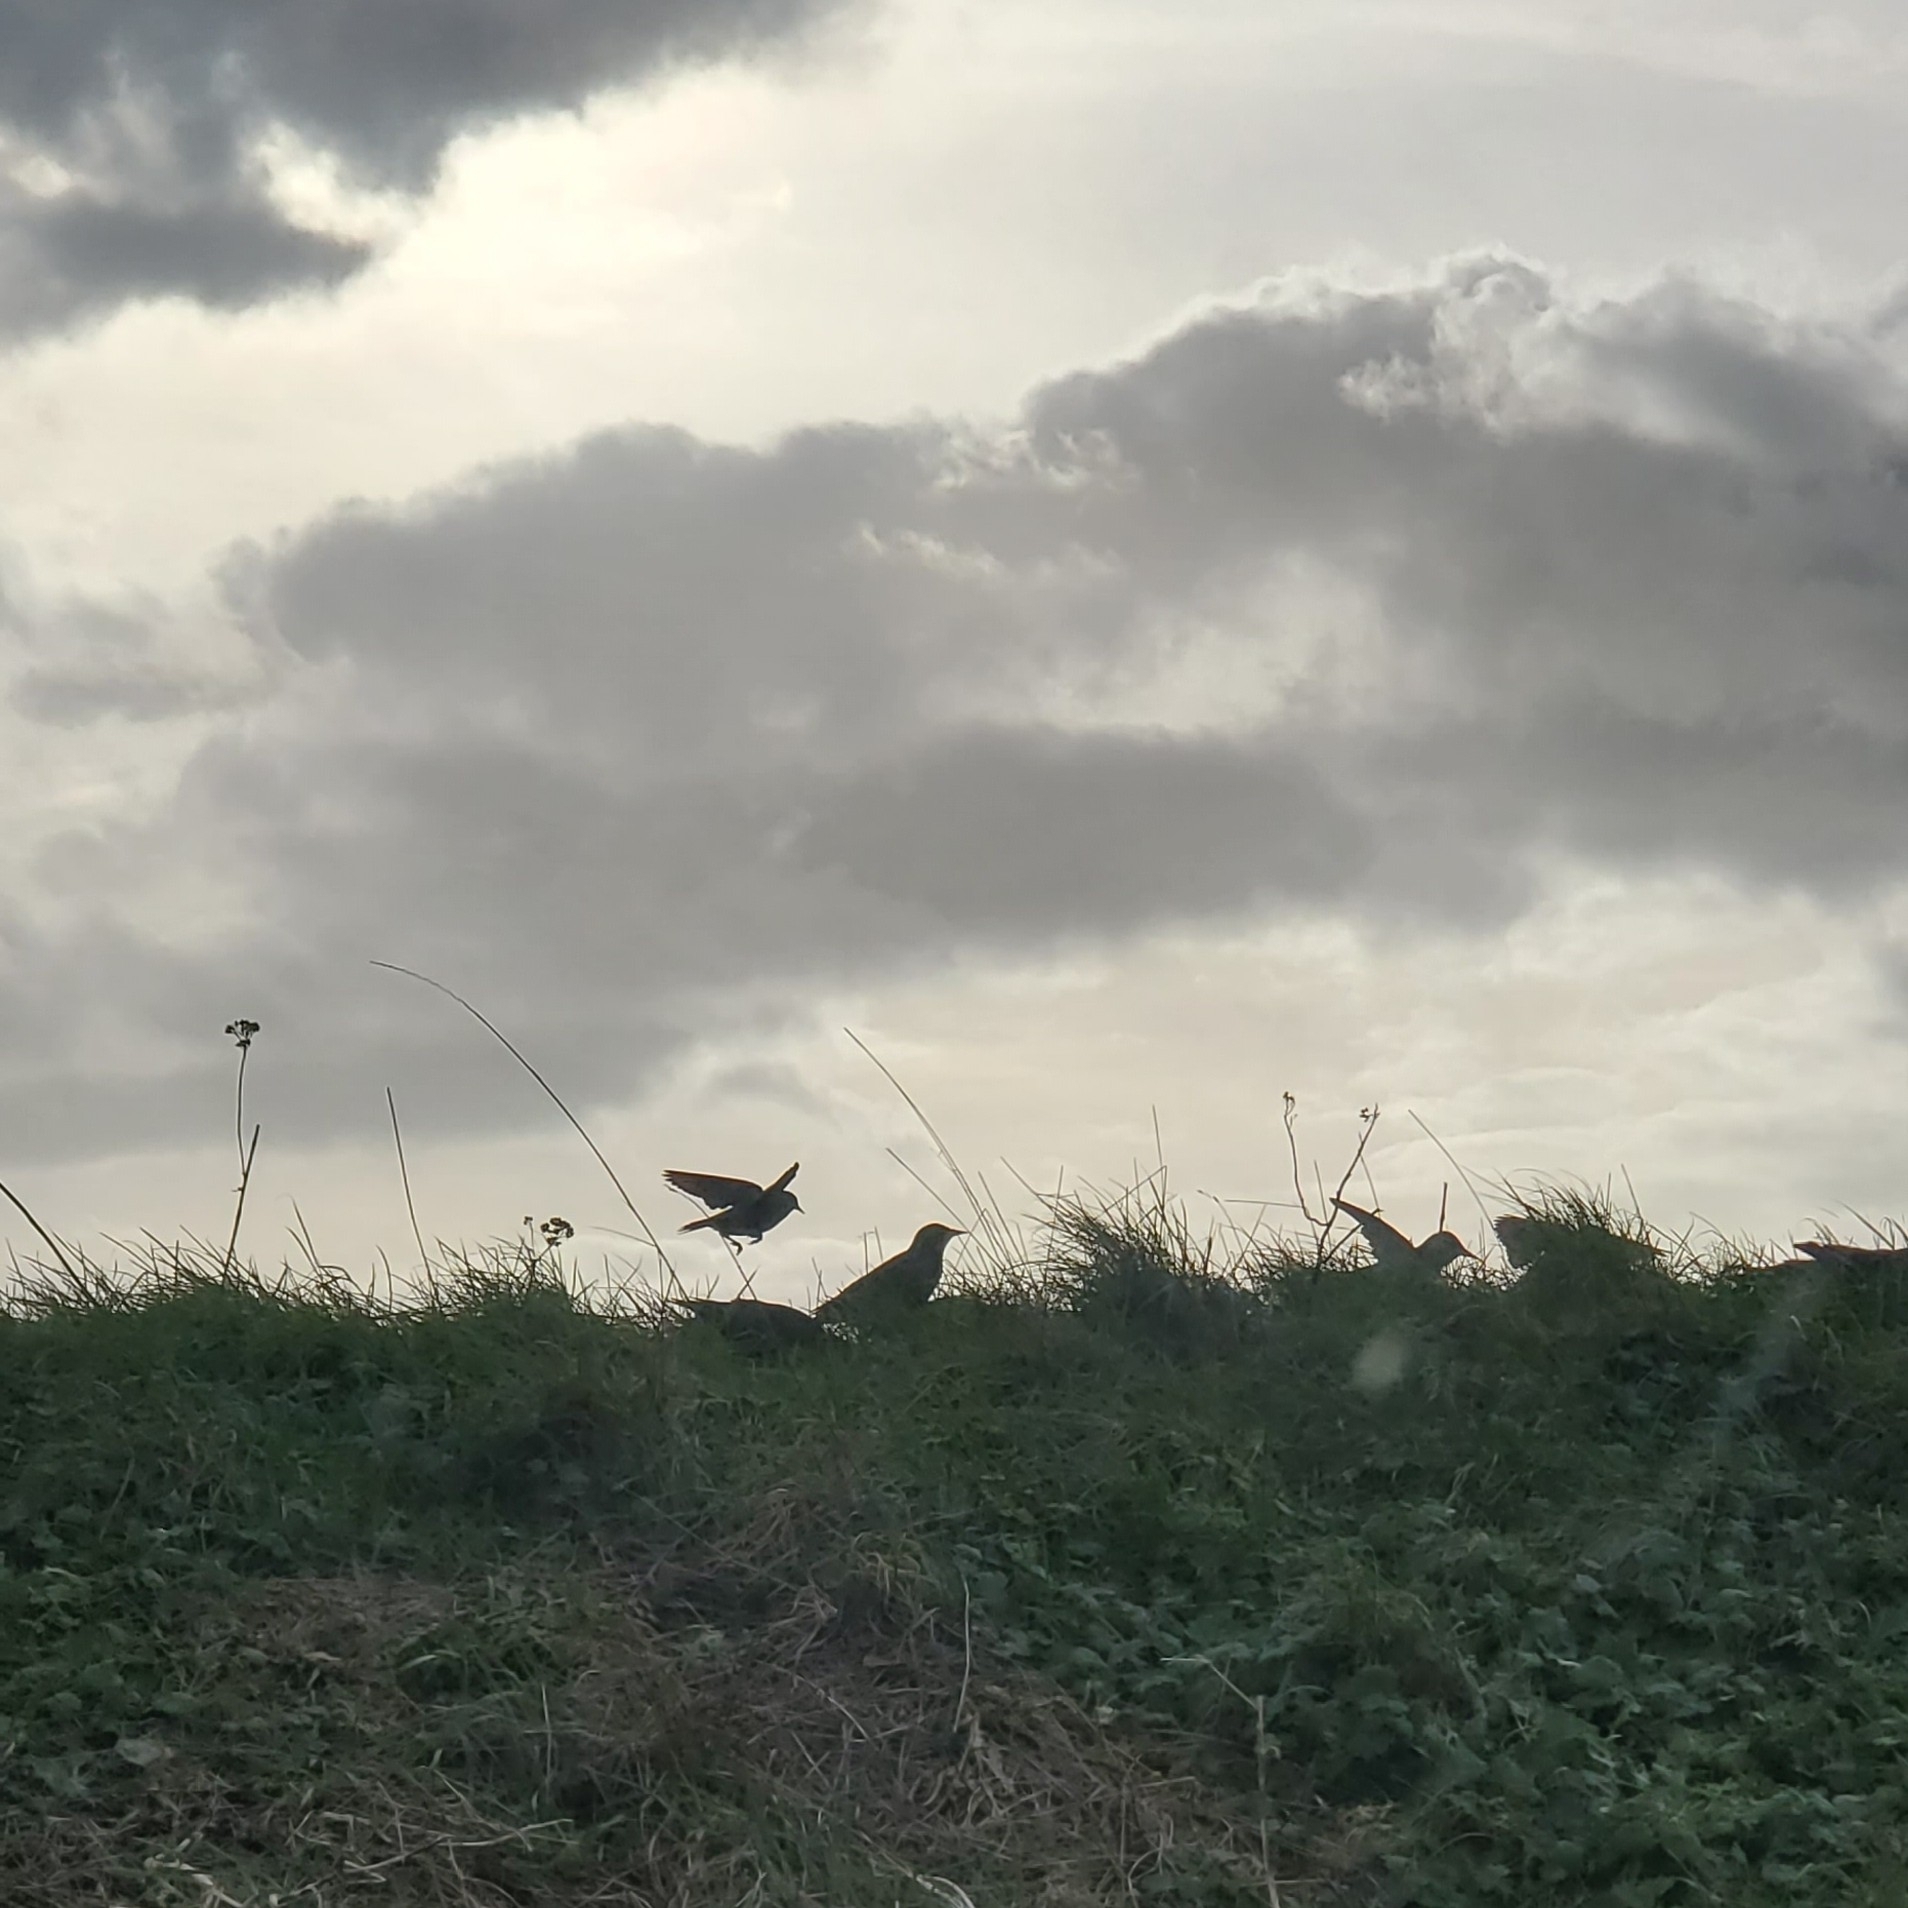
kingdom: Animalia
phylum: Chordata
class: Aves
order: Passeriformes
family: Sturnidae
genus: Sturnus
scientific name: Sturnus vulgaris
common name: Common starling
